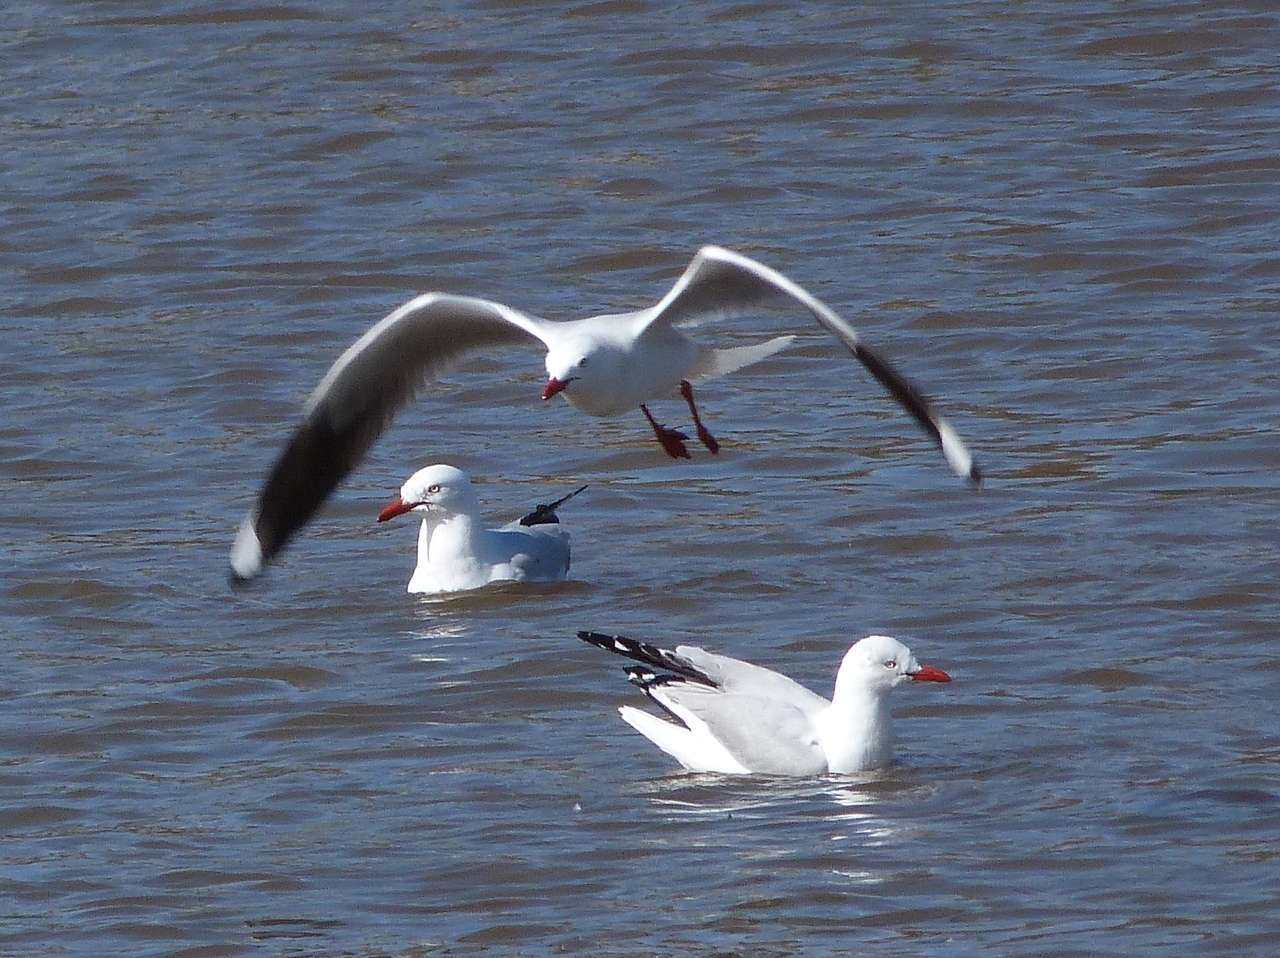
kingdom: Animalia
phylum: Chordata
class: Aves
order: Charadriiformes
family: Laridae
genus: Chroicocephalus
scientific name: Chroicocephalus novaehollandiae
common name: Silver gull
